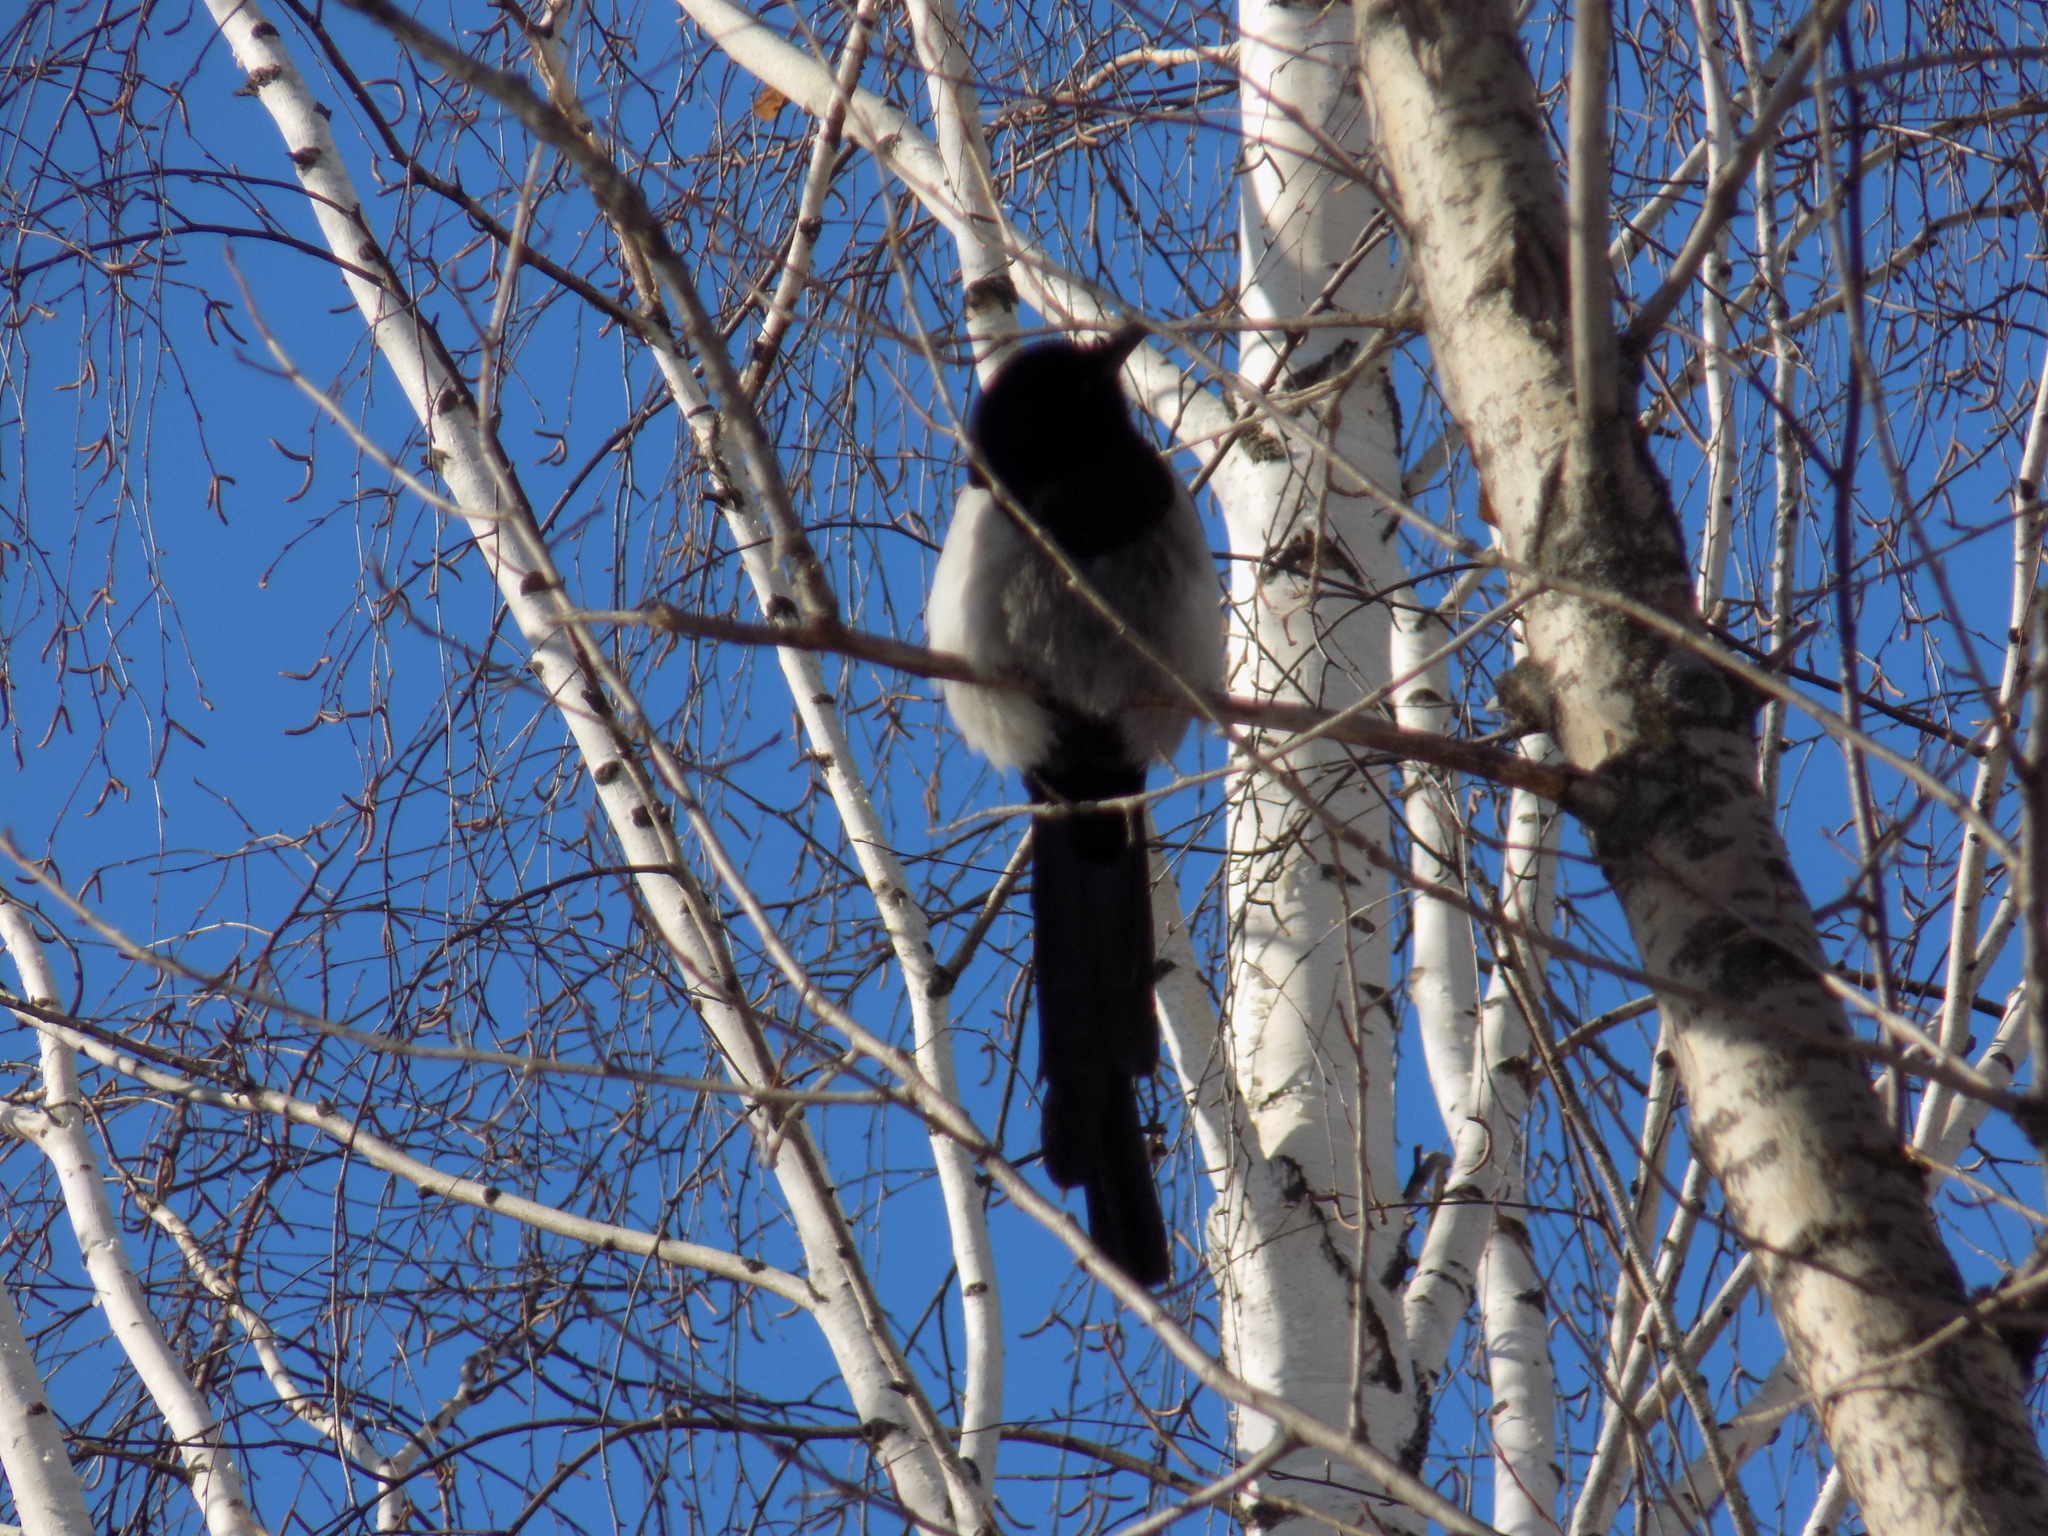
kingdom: Animalia
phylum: Chordata
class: Aves
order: Passeriformes
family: Corvidae
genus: Pica
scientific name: Pica pica
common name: Eurasian magpie
